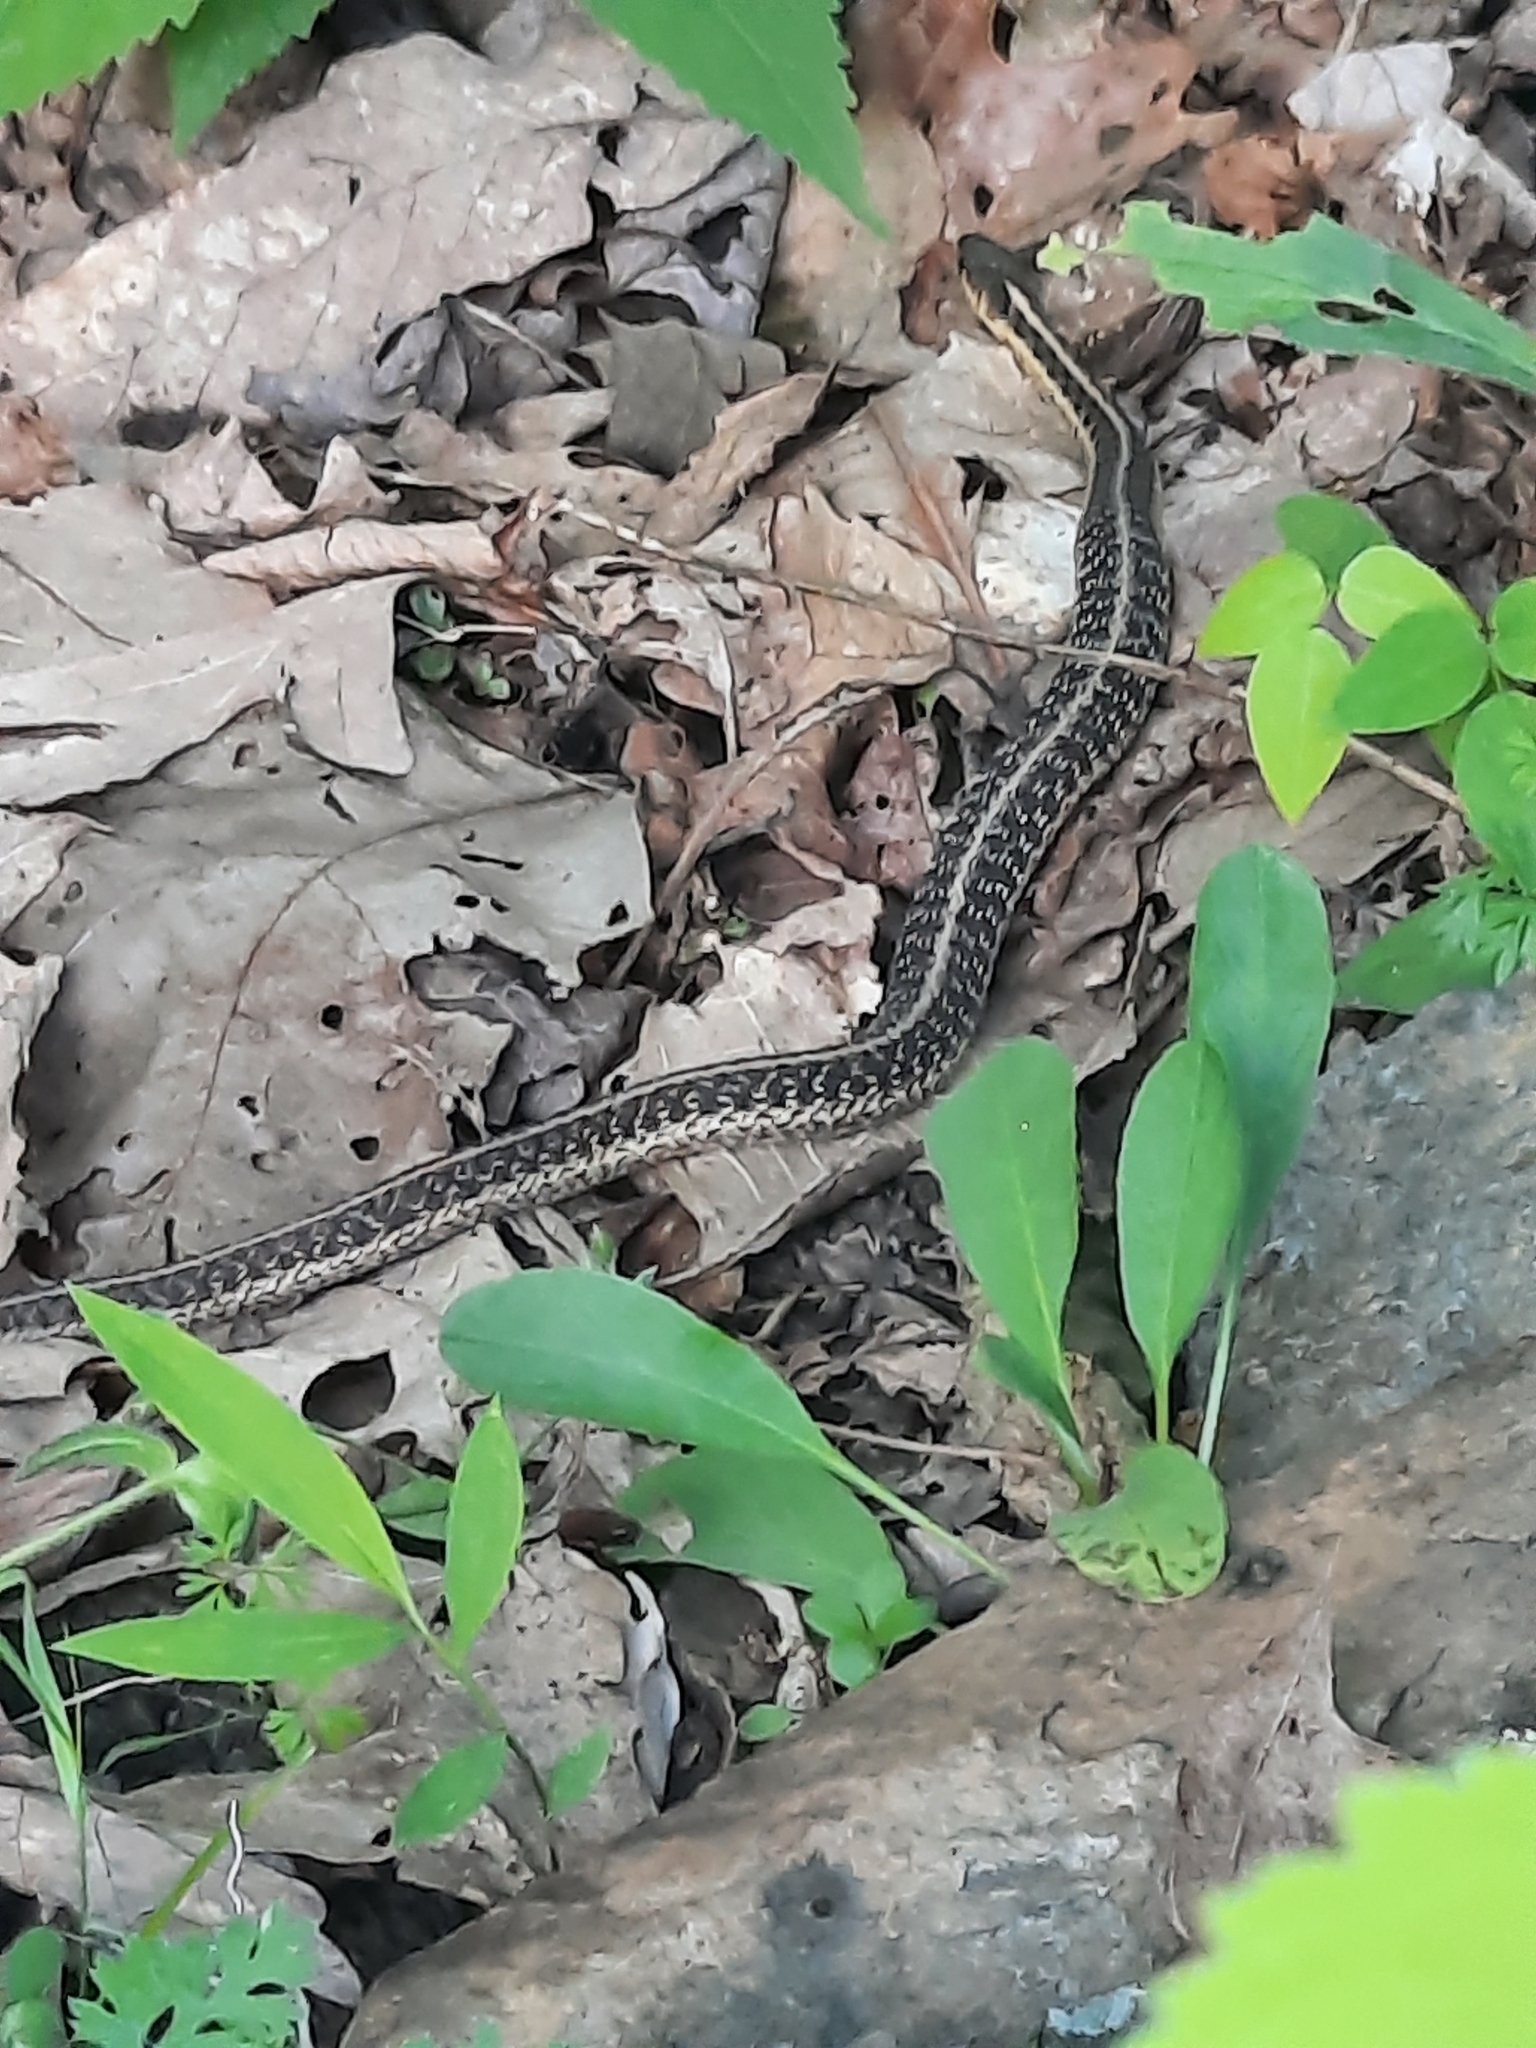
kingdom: Animalia
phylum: Chordata
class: Squamata
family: Colubridae
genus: Thamnophis
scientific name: Thamnophis sirtalis
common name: Common garter snake
